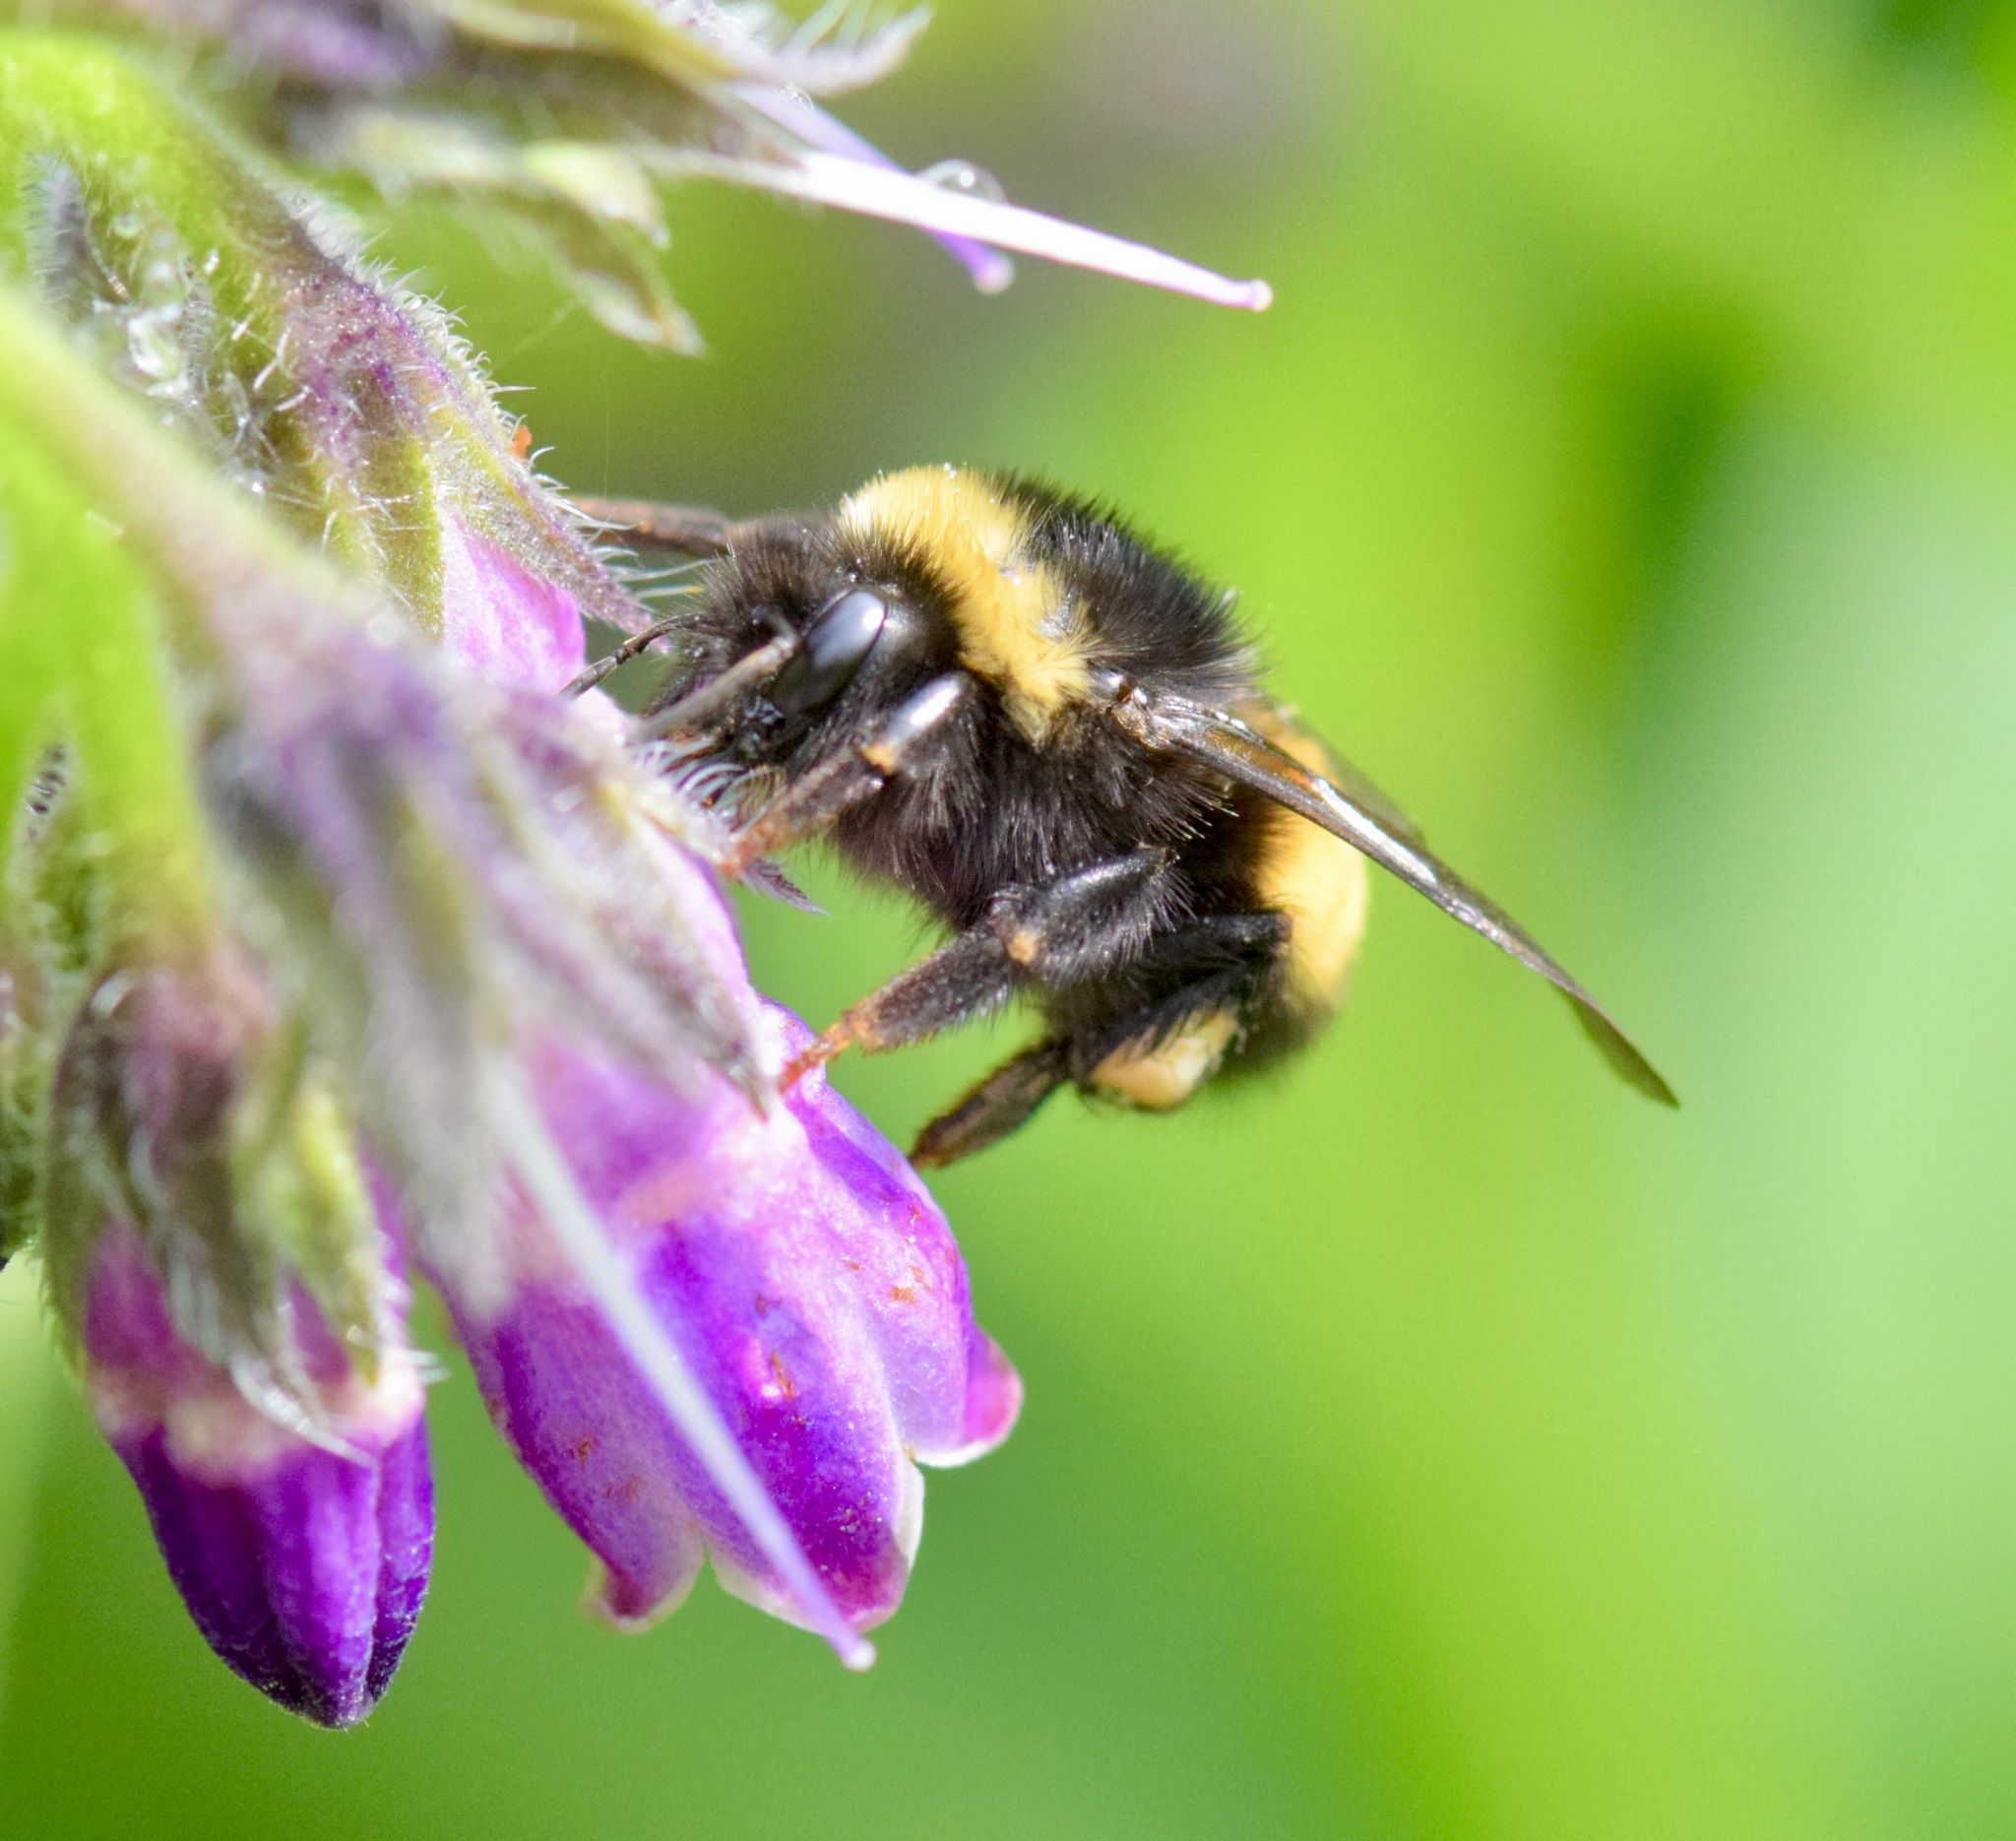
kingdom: Animalia
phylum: Arthropoda
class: Insecta
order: Hymenoptera
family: Apidae
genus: Bombus
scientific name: Bombus terricola
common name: Yellow-banded bumble bee
